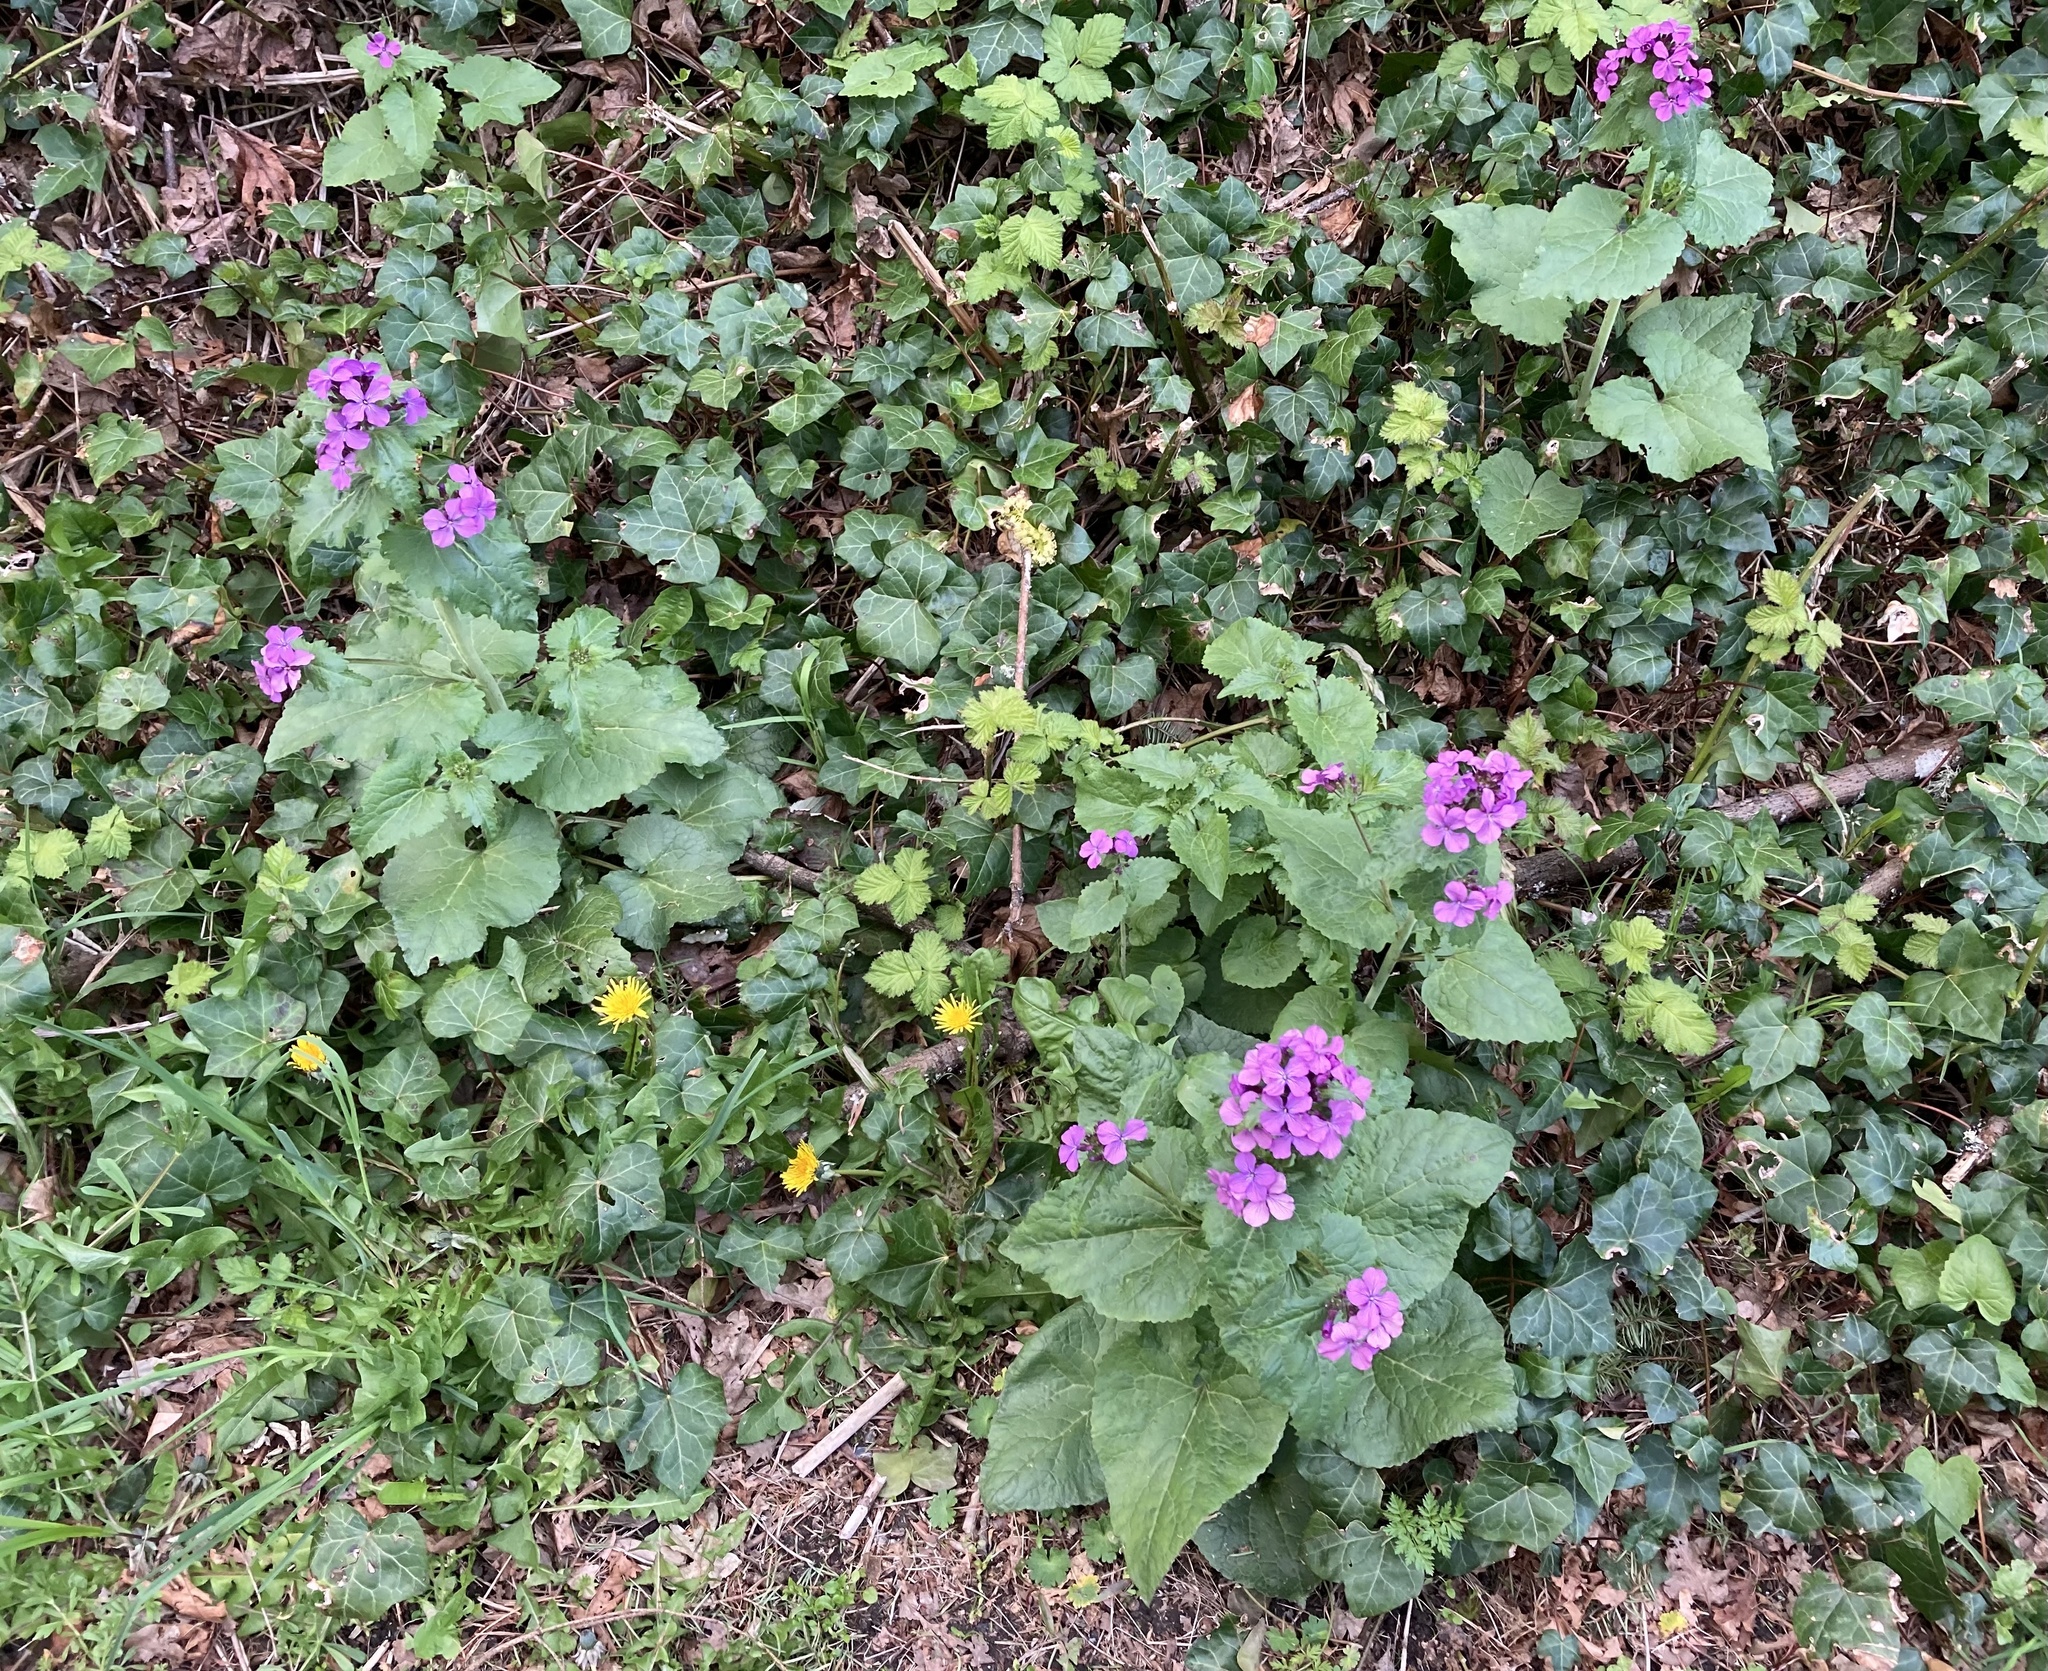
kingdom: Plantae
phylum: Tracheophyta
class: Magnoliopsida
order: Brassicales
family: Brassicaceae
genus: Lunaria
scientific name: Lunaria annua
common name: Honesty
